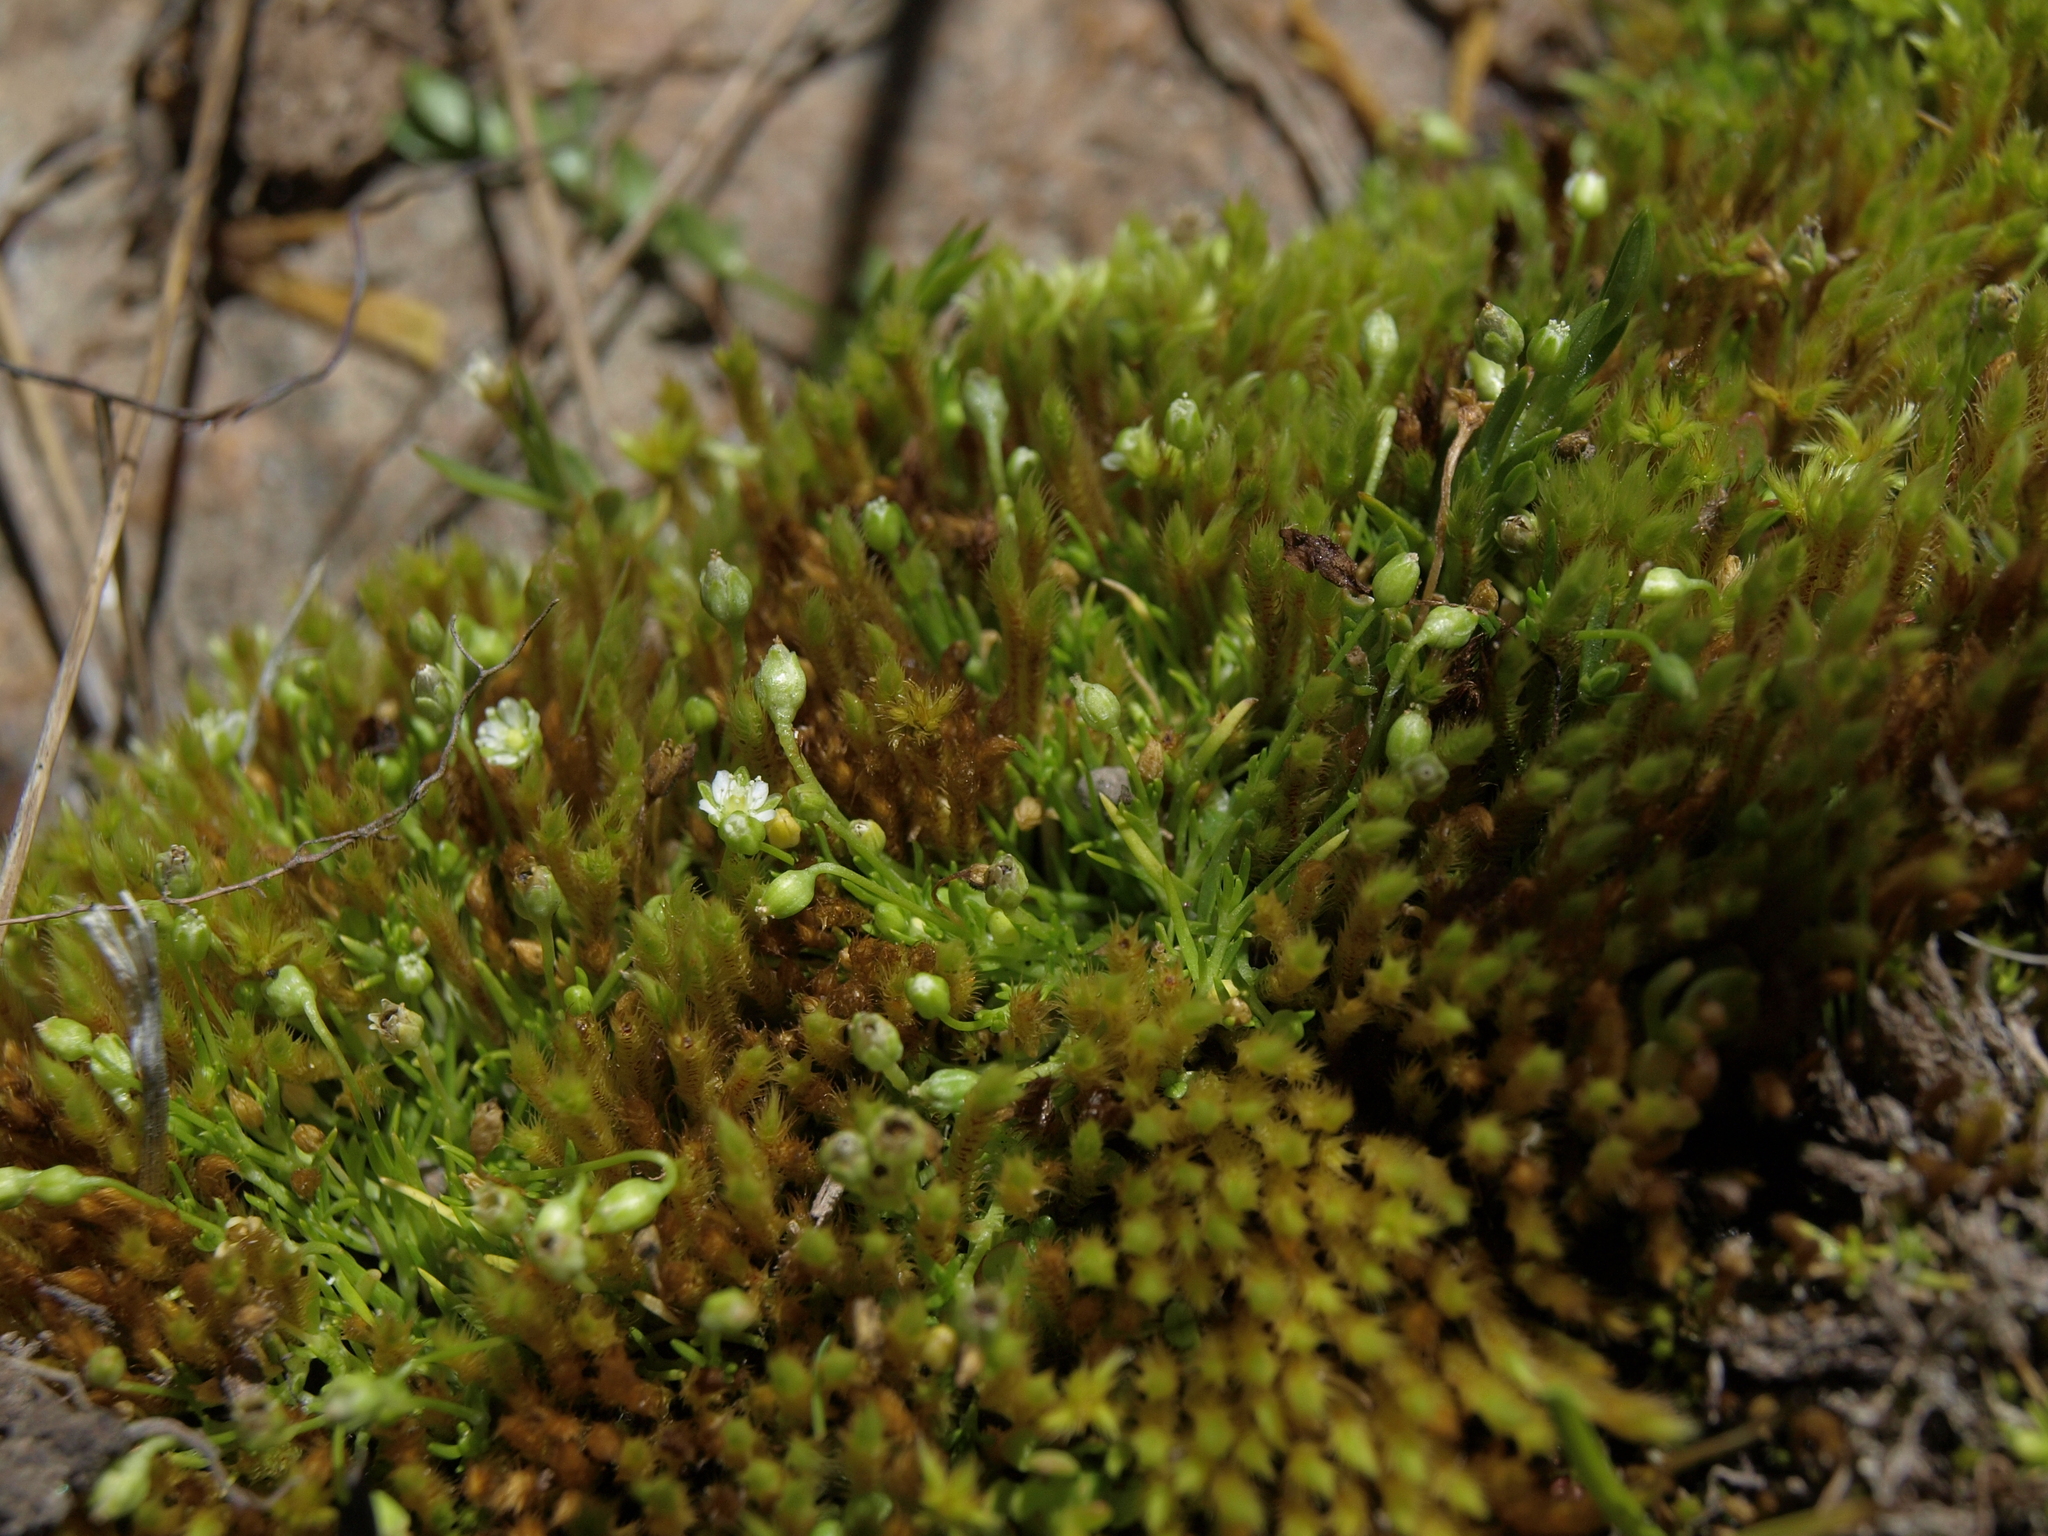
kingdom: Plantae
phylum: Tracheophyta
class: Magnoliopsida
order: Caryophyllales
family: Caryophyllaceae
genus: Sagina
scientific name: Sagina saginoides
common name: Alpine pearlwort
